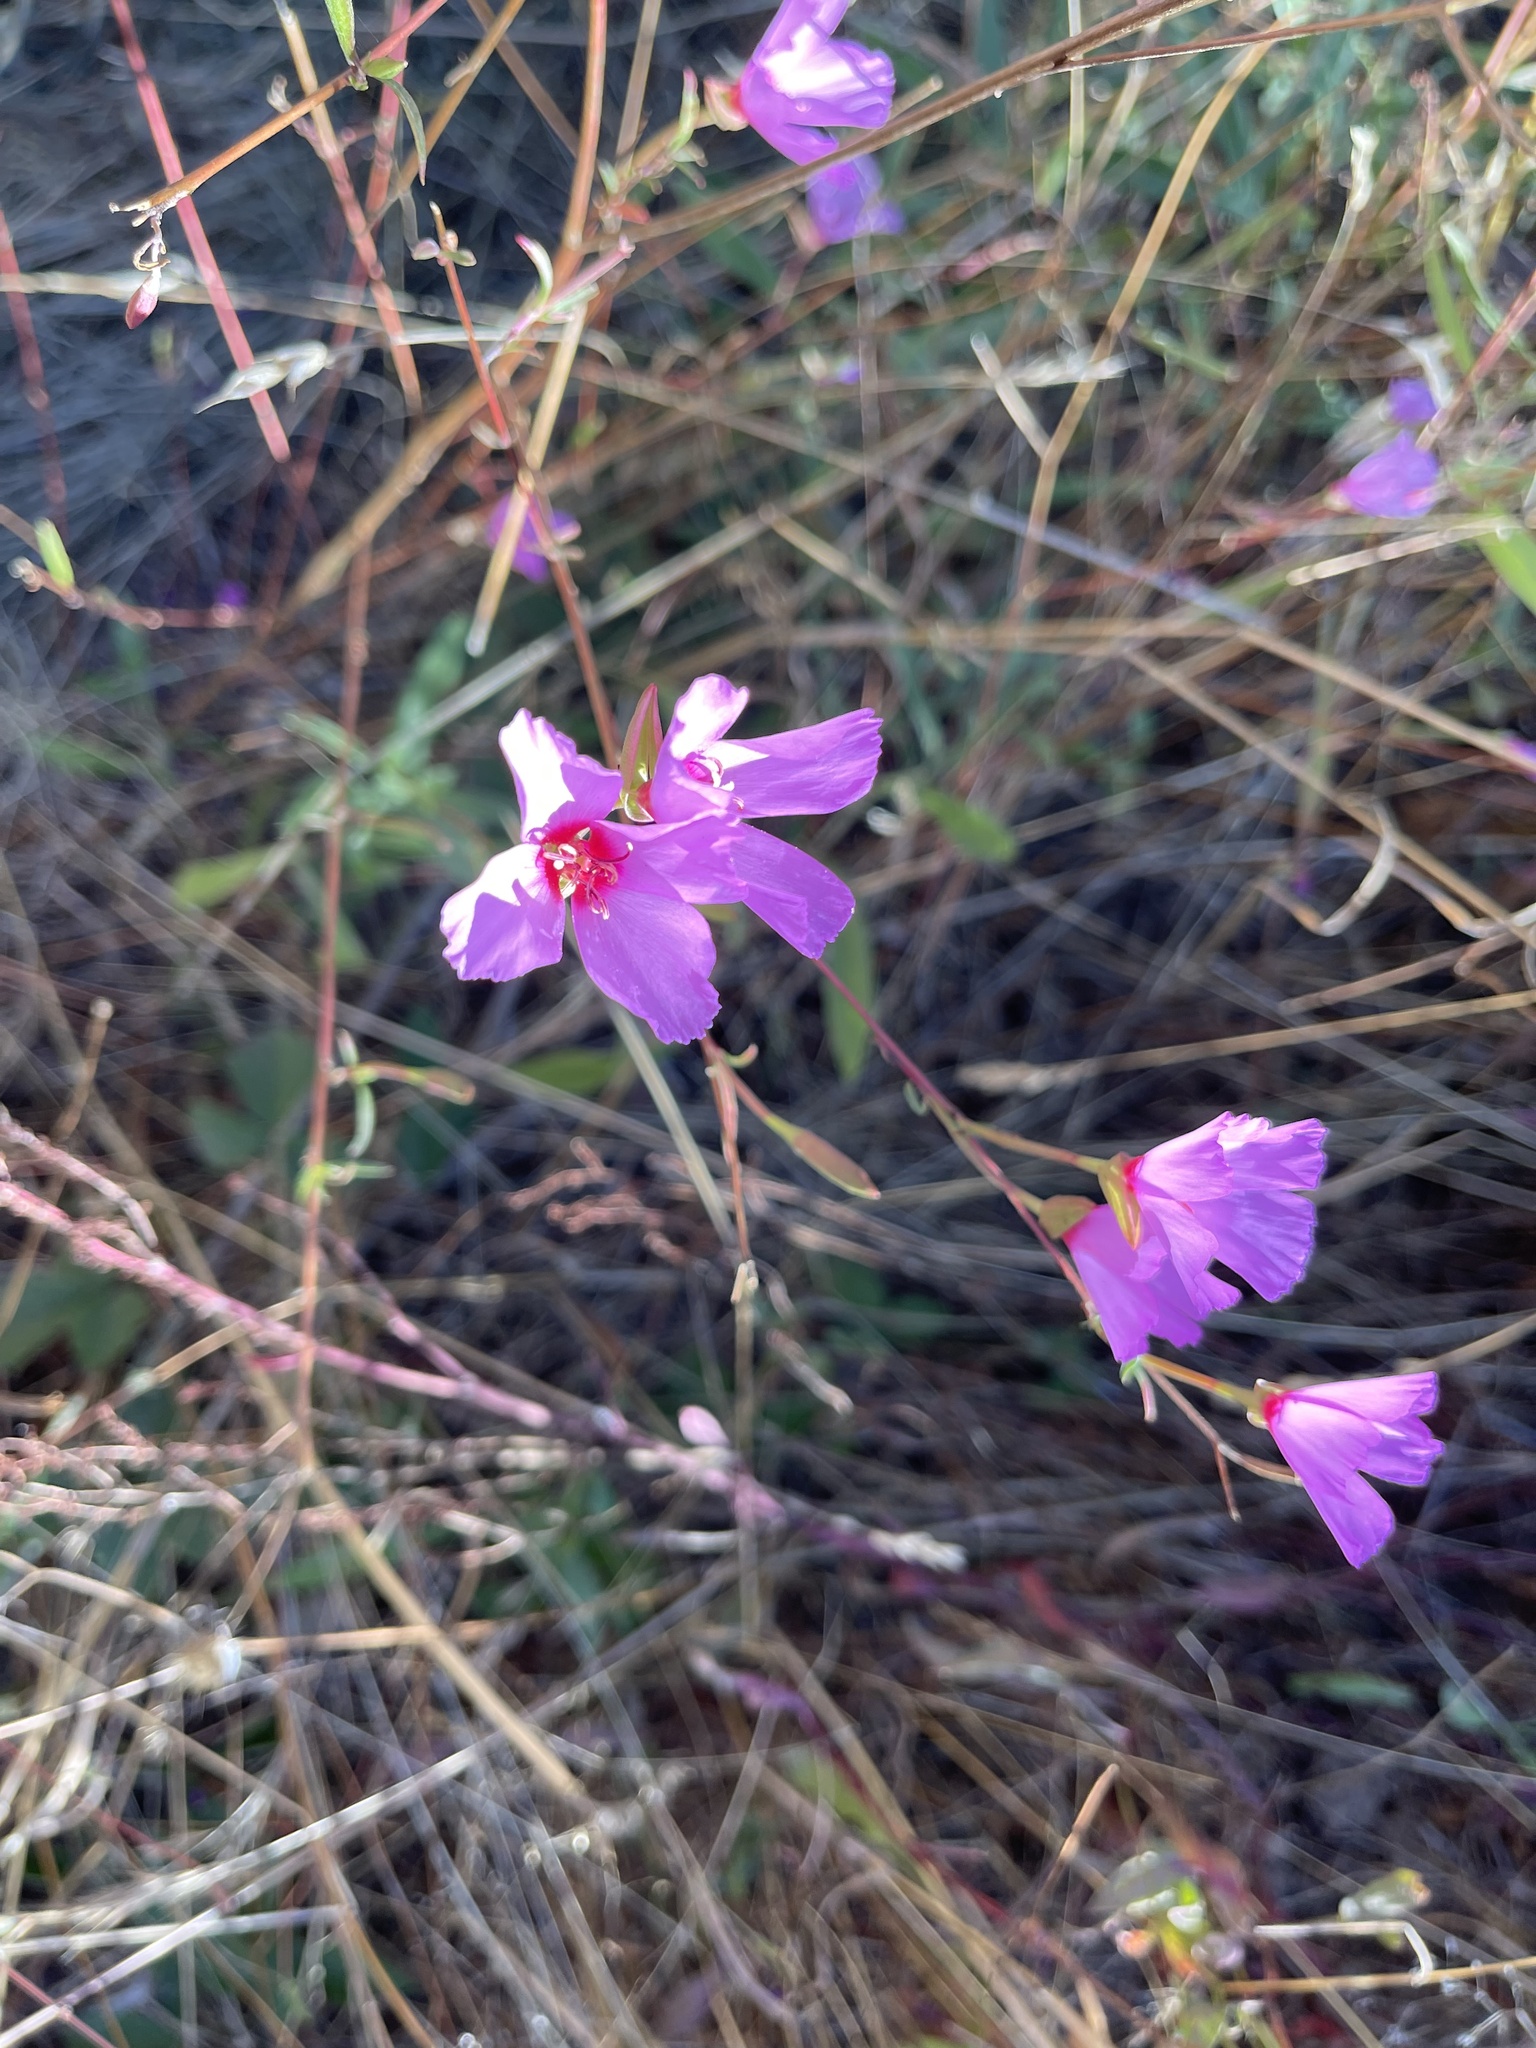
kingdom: Plantae
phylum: Tracheophyta
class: Magnoliopsida
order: Myrtales
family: Onagraceae
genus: Clarkia
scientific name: Clarkia rubicunda
